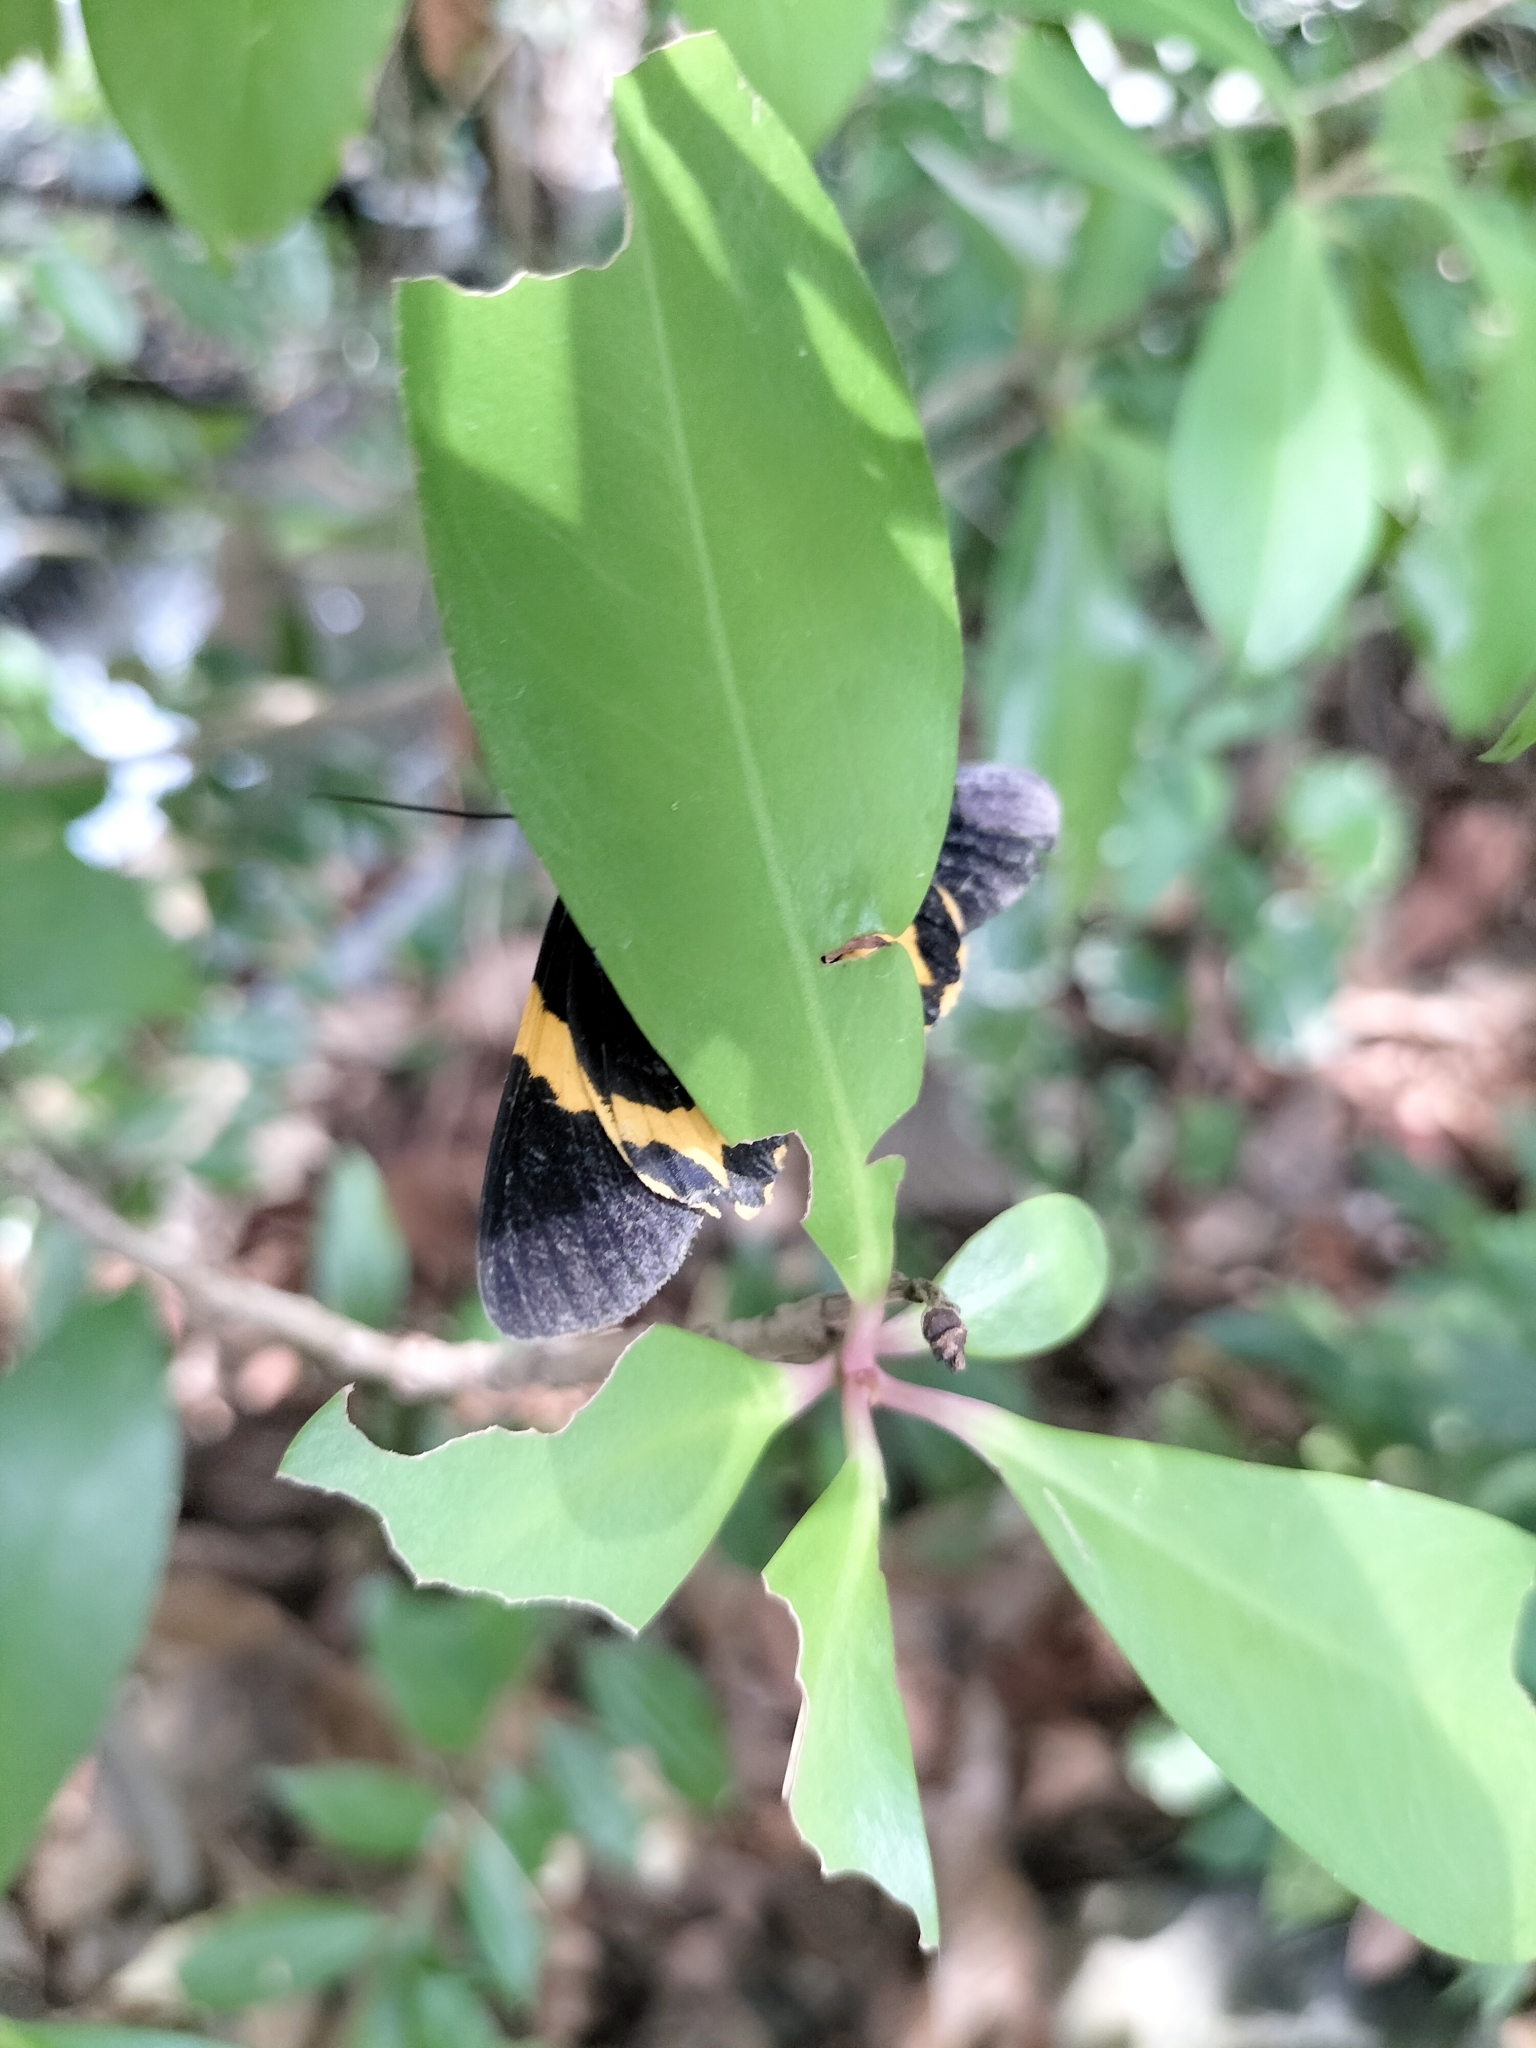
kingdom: Animalia
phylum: Arthropoda
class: Insecta
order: Lepidoptera
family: Geometridae
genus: Milionia
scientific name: Milionia basalis
